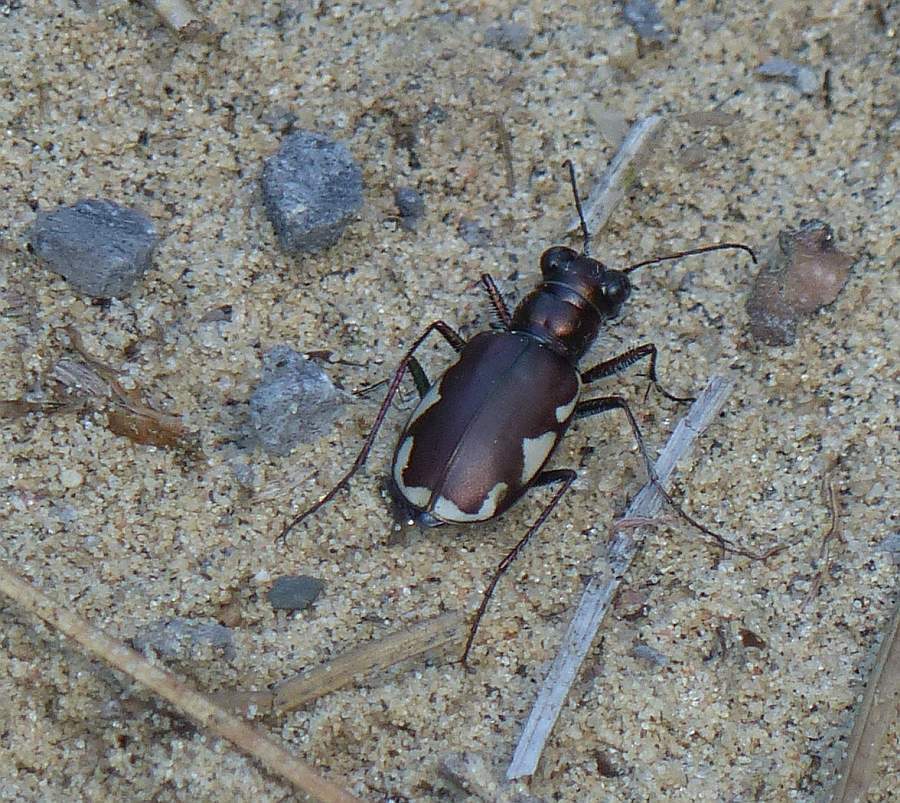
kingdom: Animalia
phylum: Arthropoda
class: Insecta
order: Coleoptera
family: Carabidae
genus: Cicindela
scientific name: Cicindela scutellaris
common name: Festive tiger beetle
